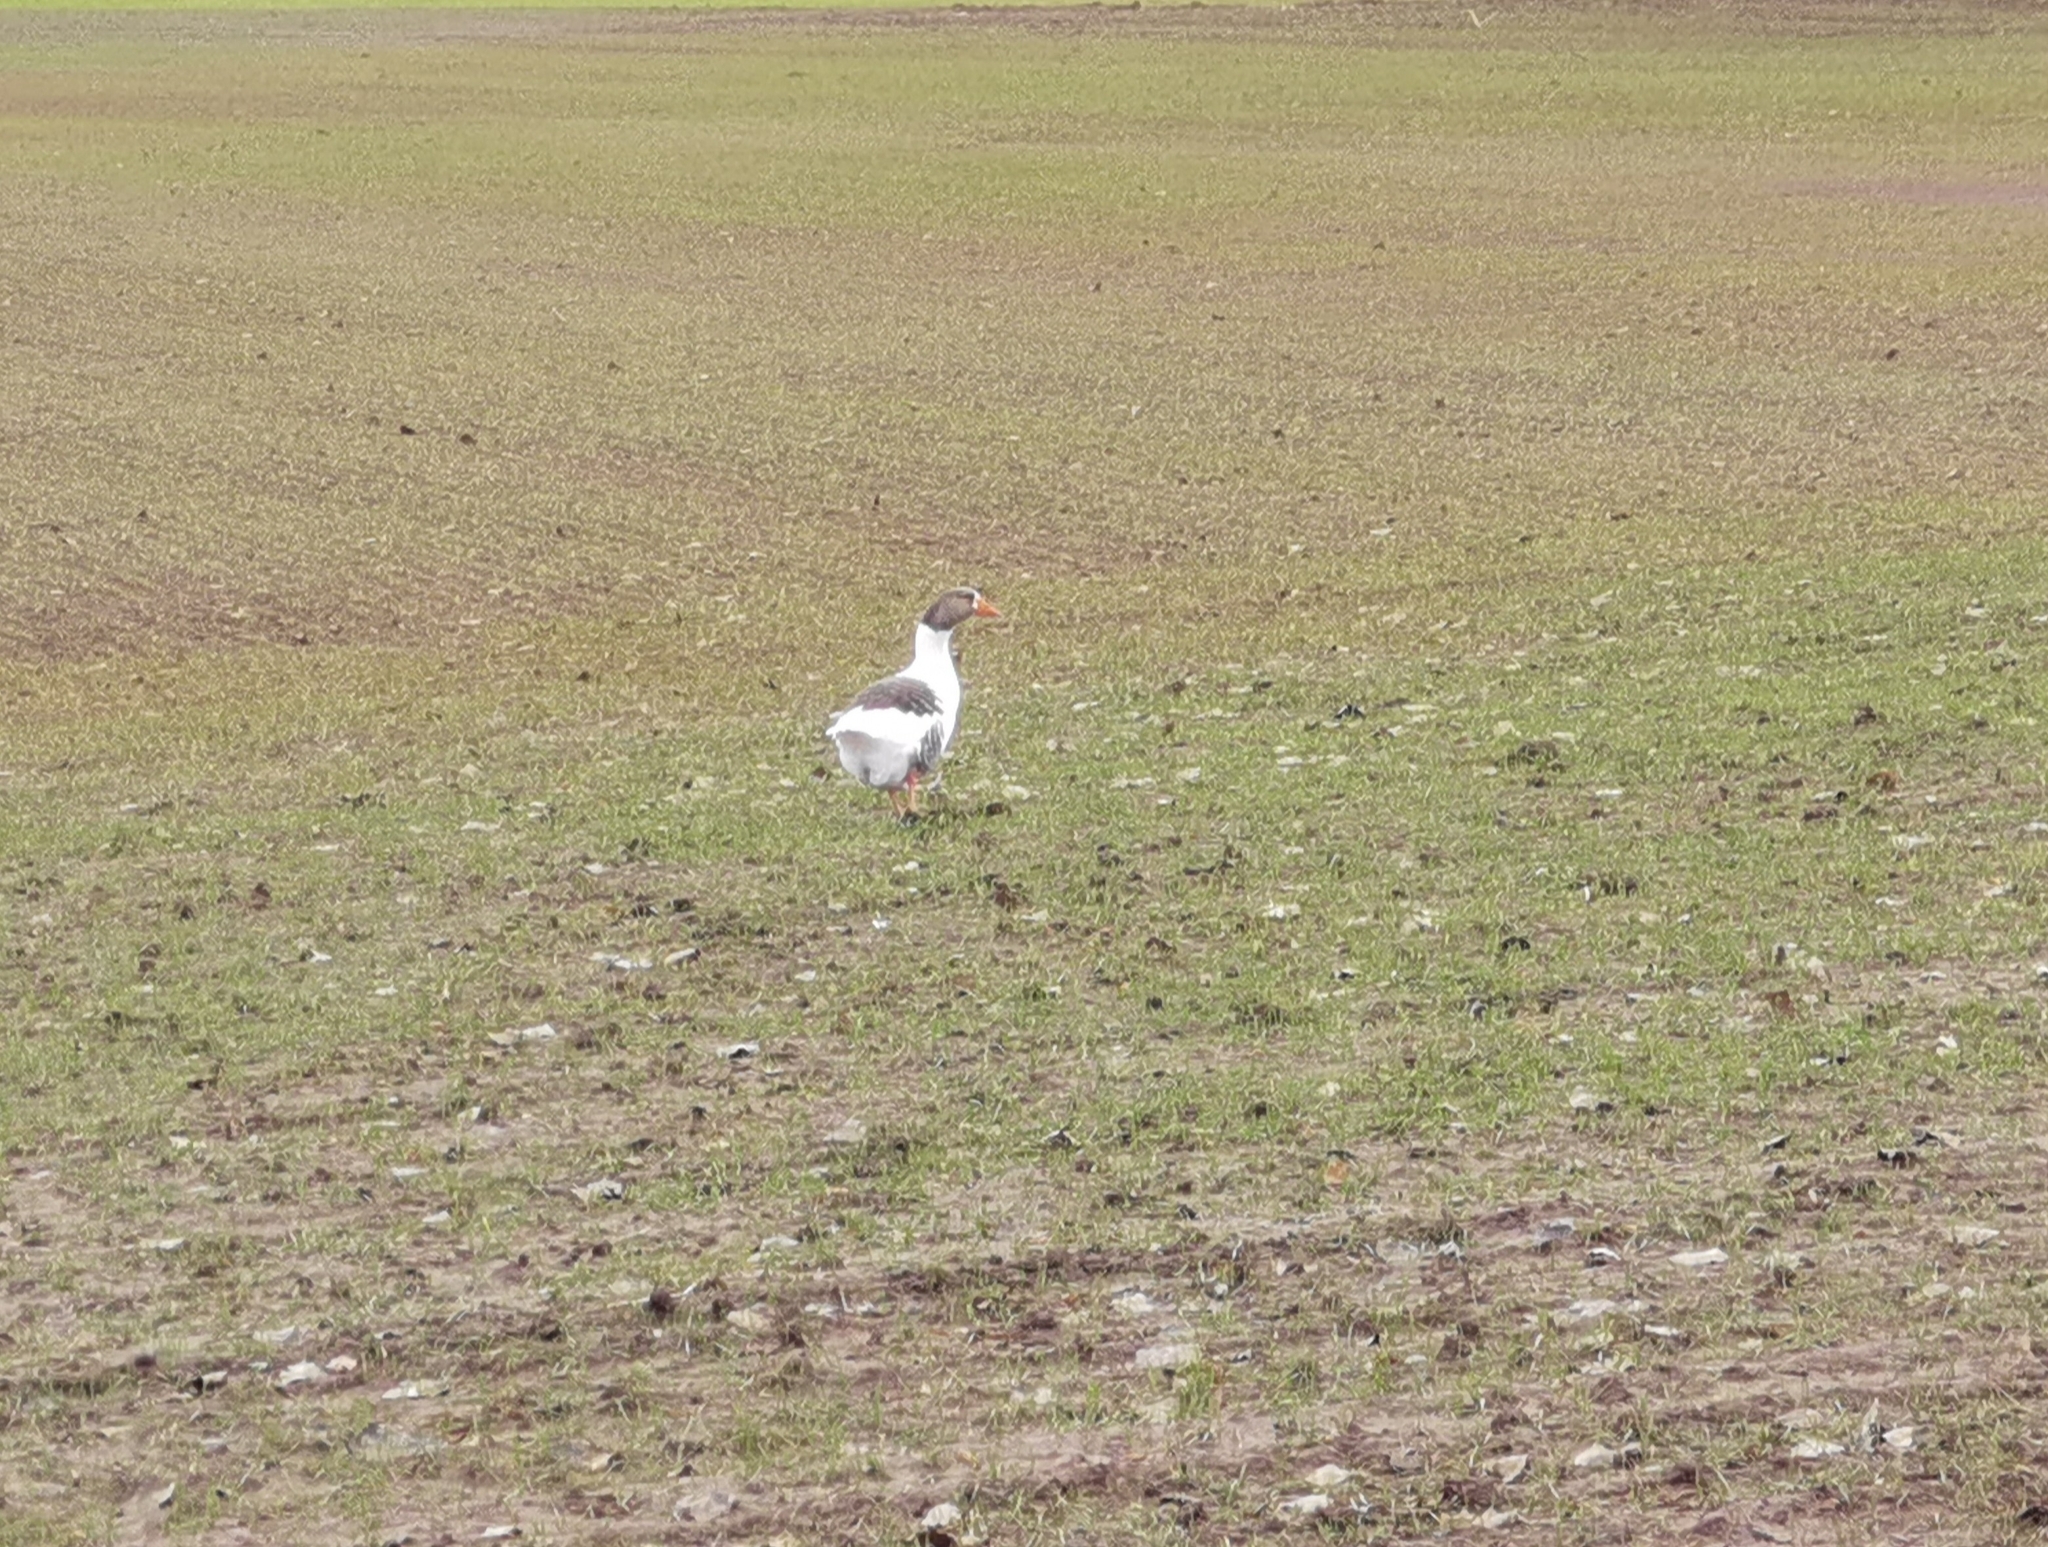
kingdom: Animalia
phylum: Chordata
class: Aves
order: Anseriformes
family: Anatidae
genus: Anser
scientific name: Anser anser
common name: Greylag goose
